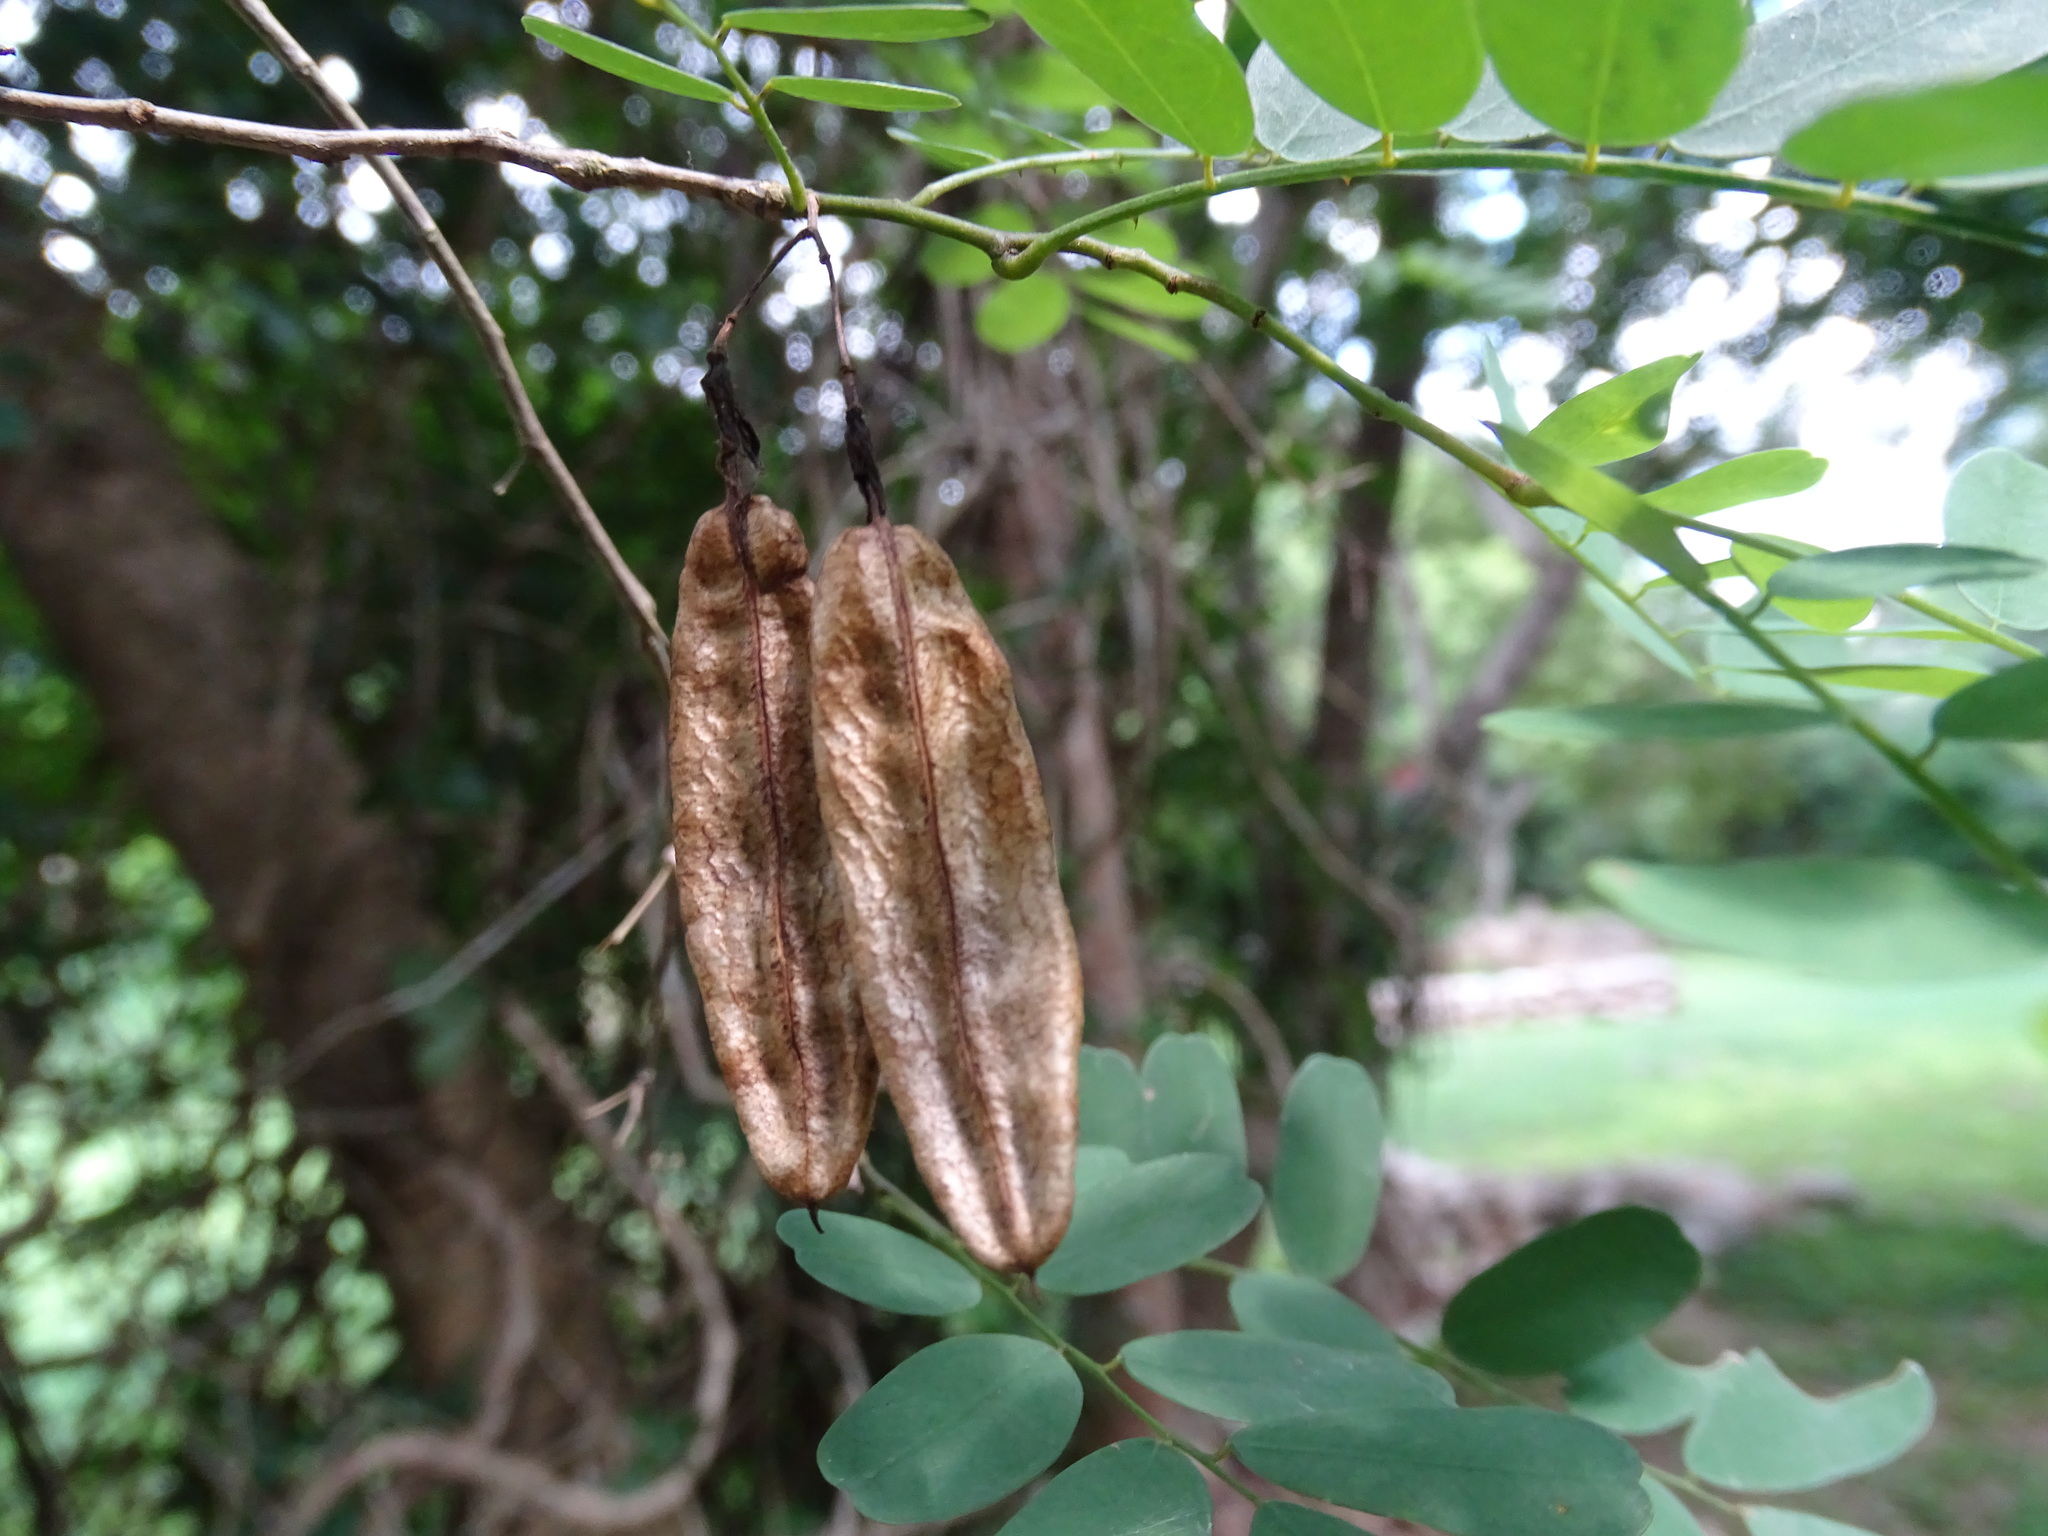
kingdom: Plantae
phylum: Tracheophyta
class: Magnoliopsida
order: Fabales
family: Fabaceae
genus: Diphysa
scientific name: Diphysa americana
